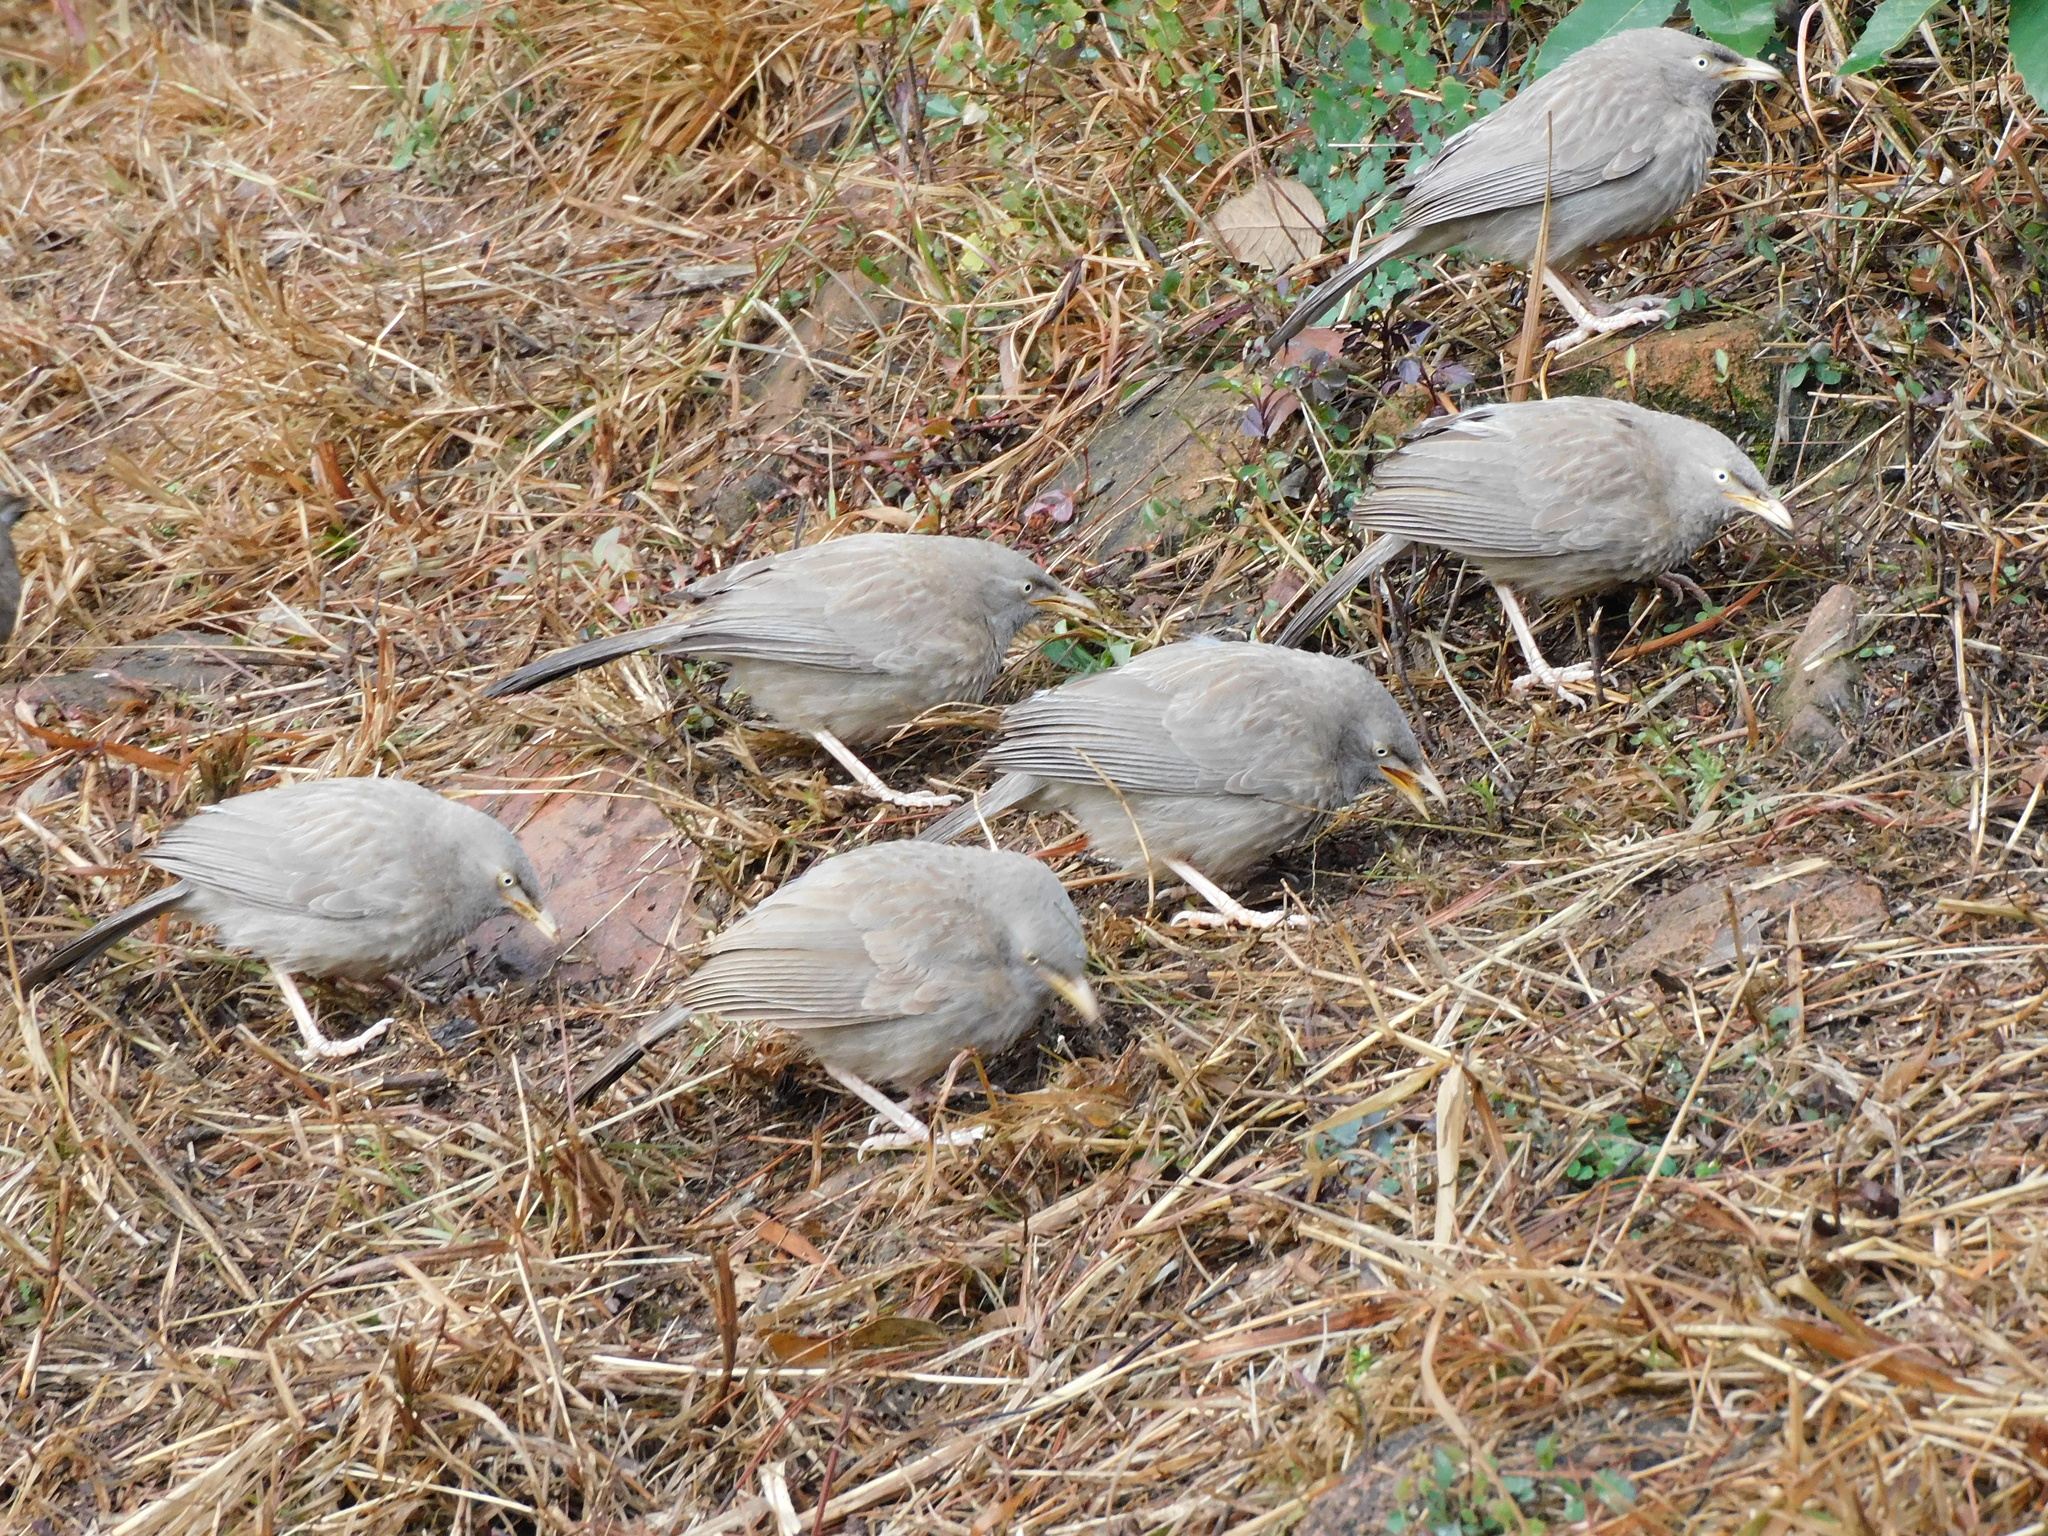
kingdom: Animalia
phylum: Chordata
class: Aves
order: Passeriformes
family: Leiothrichidae
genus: Turdoides
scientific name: Turdoides striata
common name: Jungle babbler
